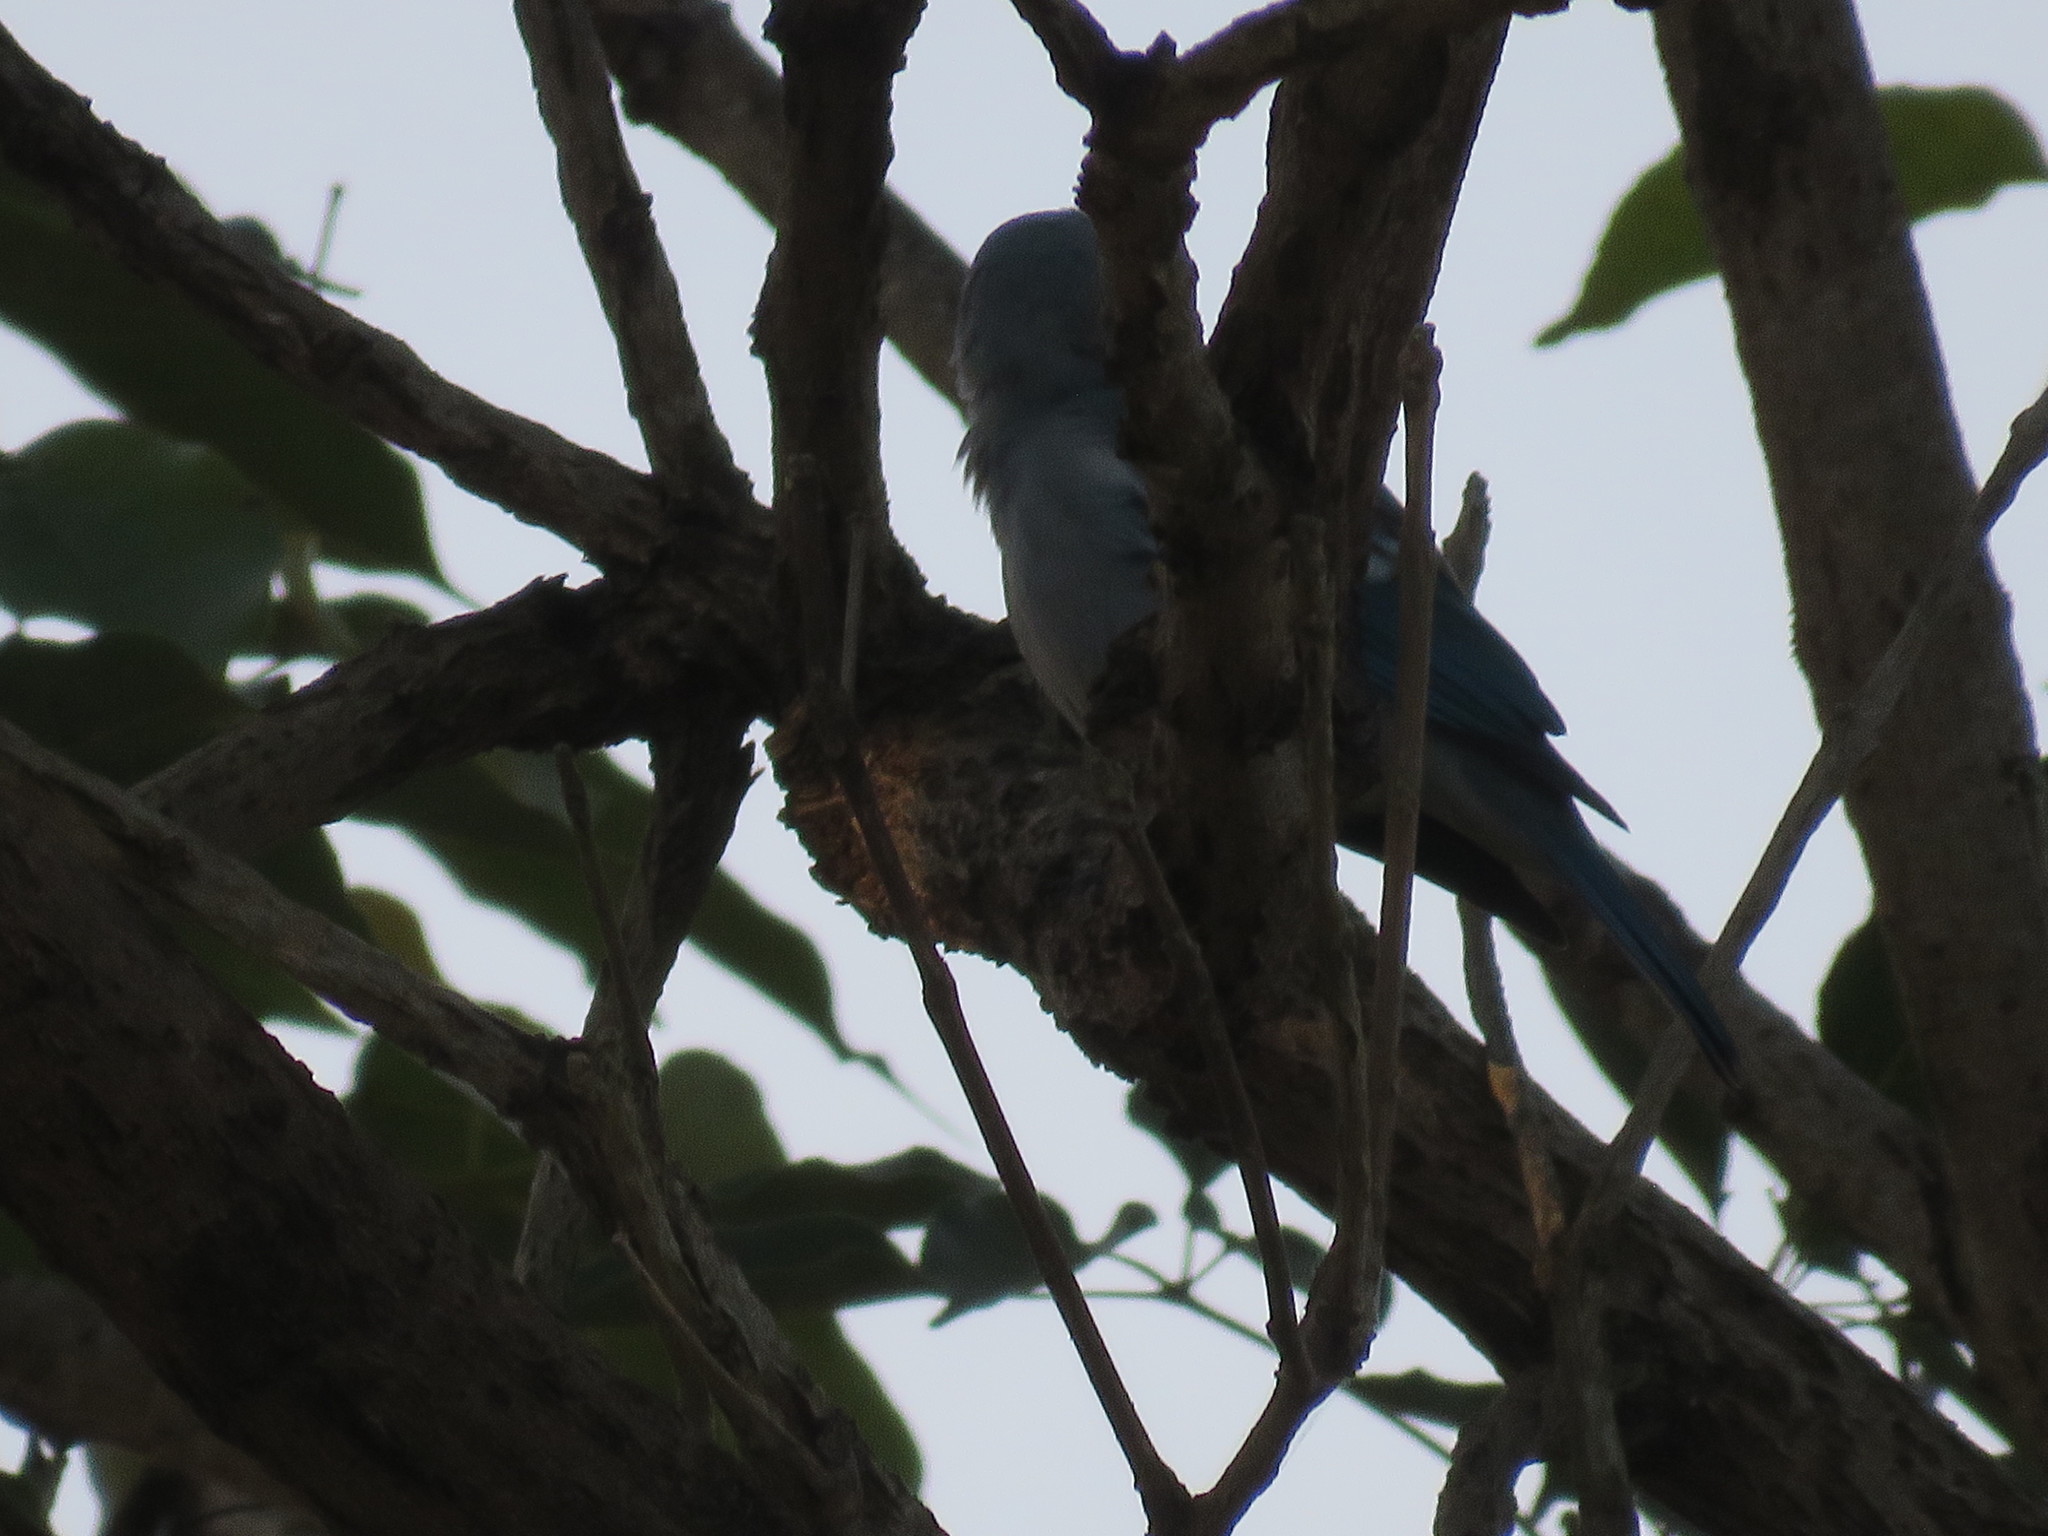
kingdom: Animalia
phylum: Chordata
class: Aves
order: Passeriformes
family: Thraupidae
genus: Thraupis
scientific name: Thraupis episcopus
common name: Blue-grey tanager
